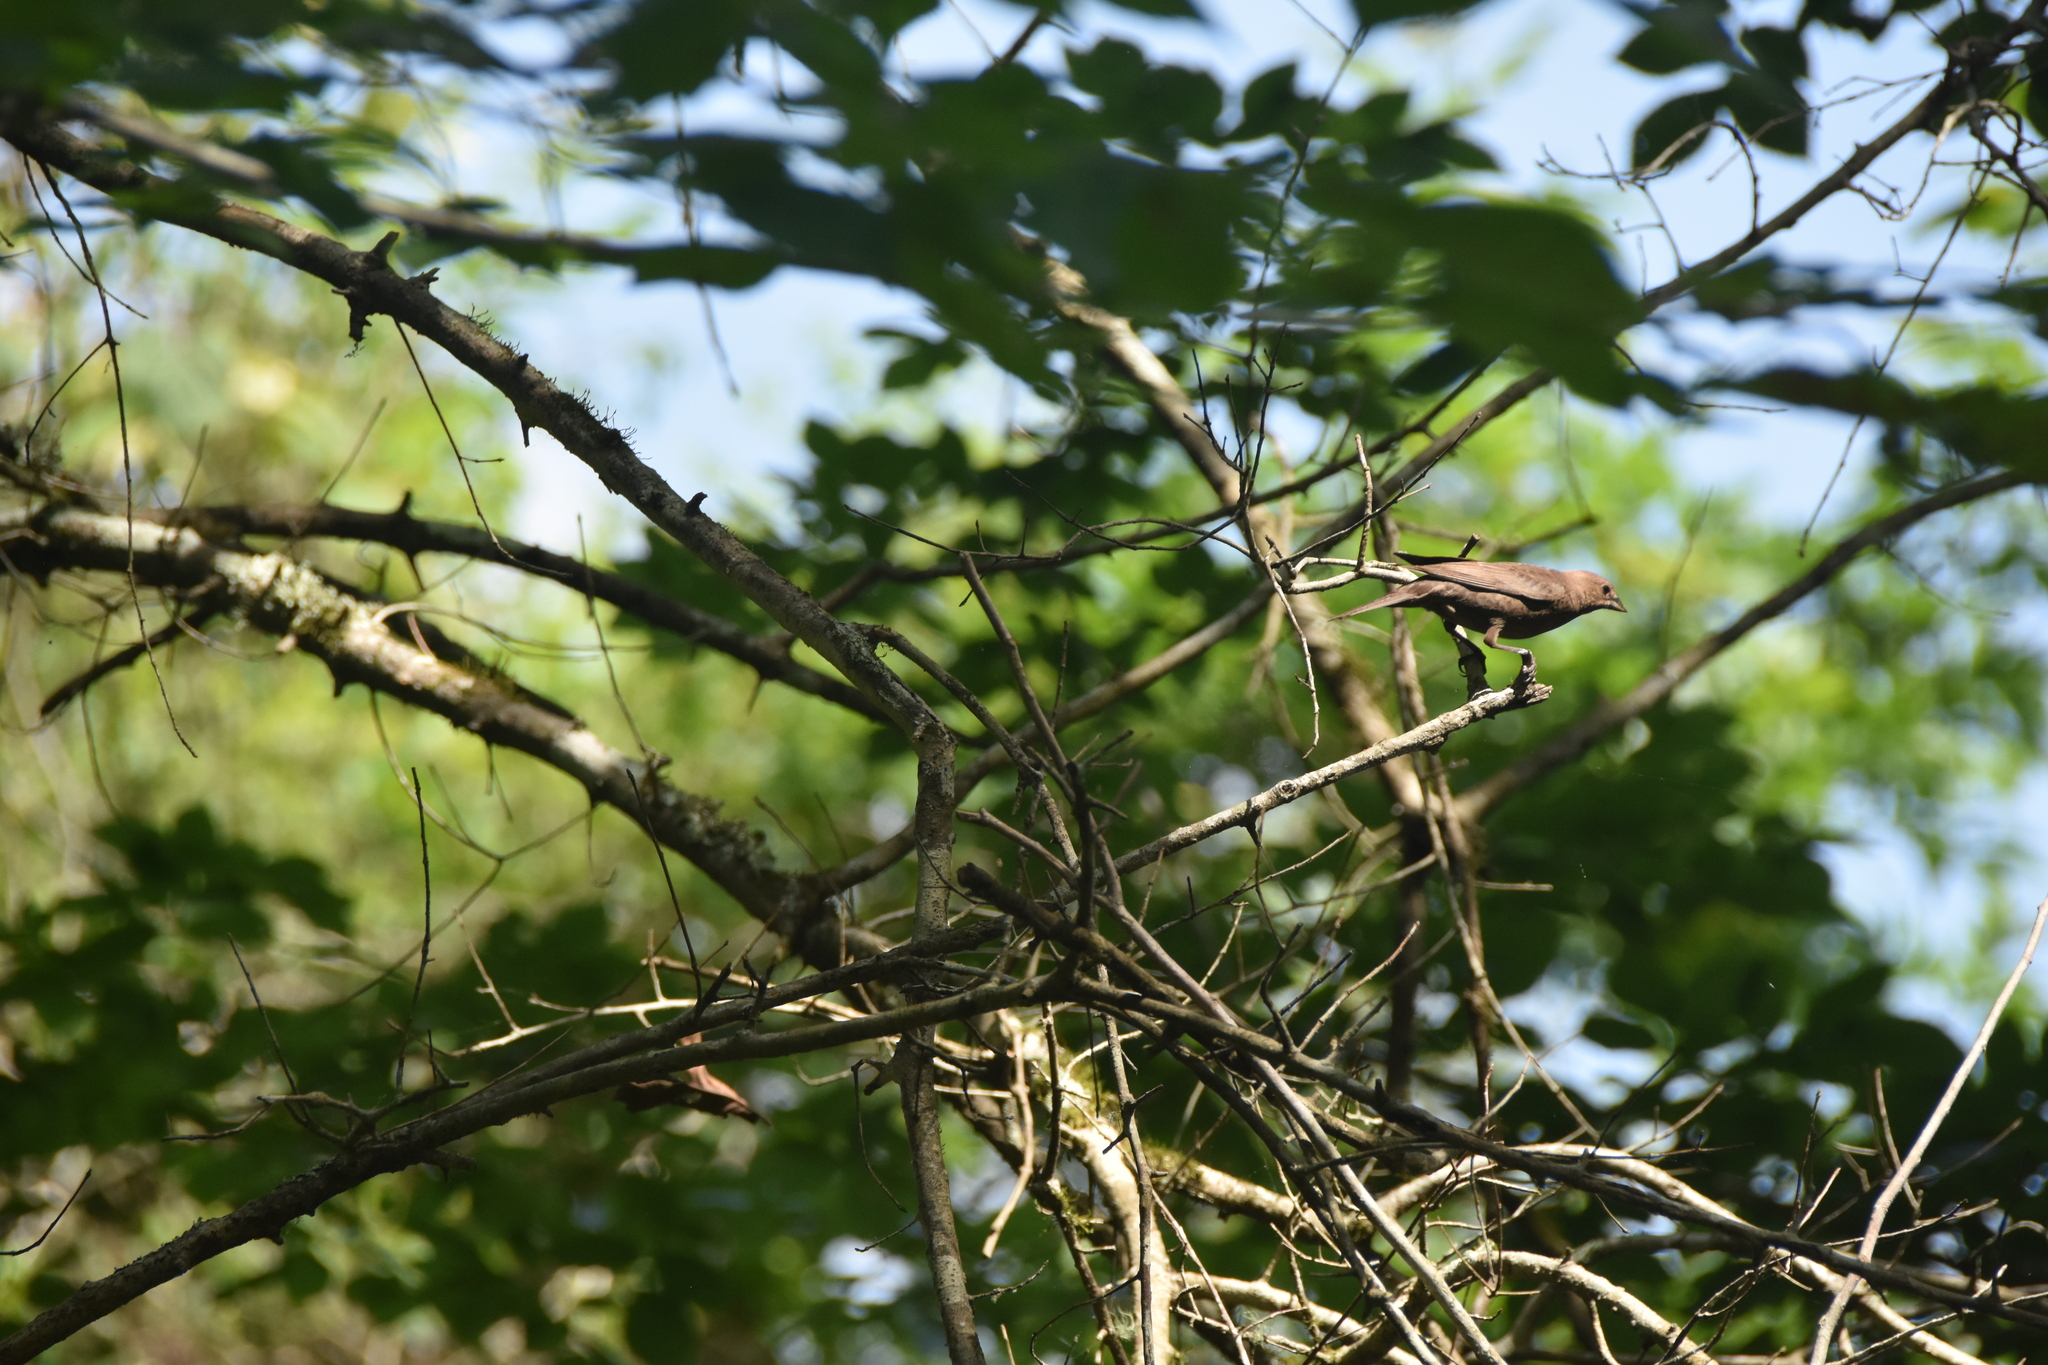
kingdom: Animalia
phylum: Chordata
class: Aves
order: Passeriformes
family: Icteridae
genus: Molothrus
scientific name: Molothrus ater
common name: Brown-headed cowbird
